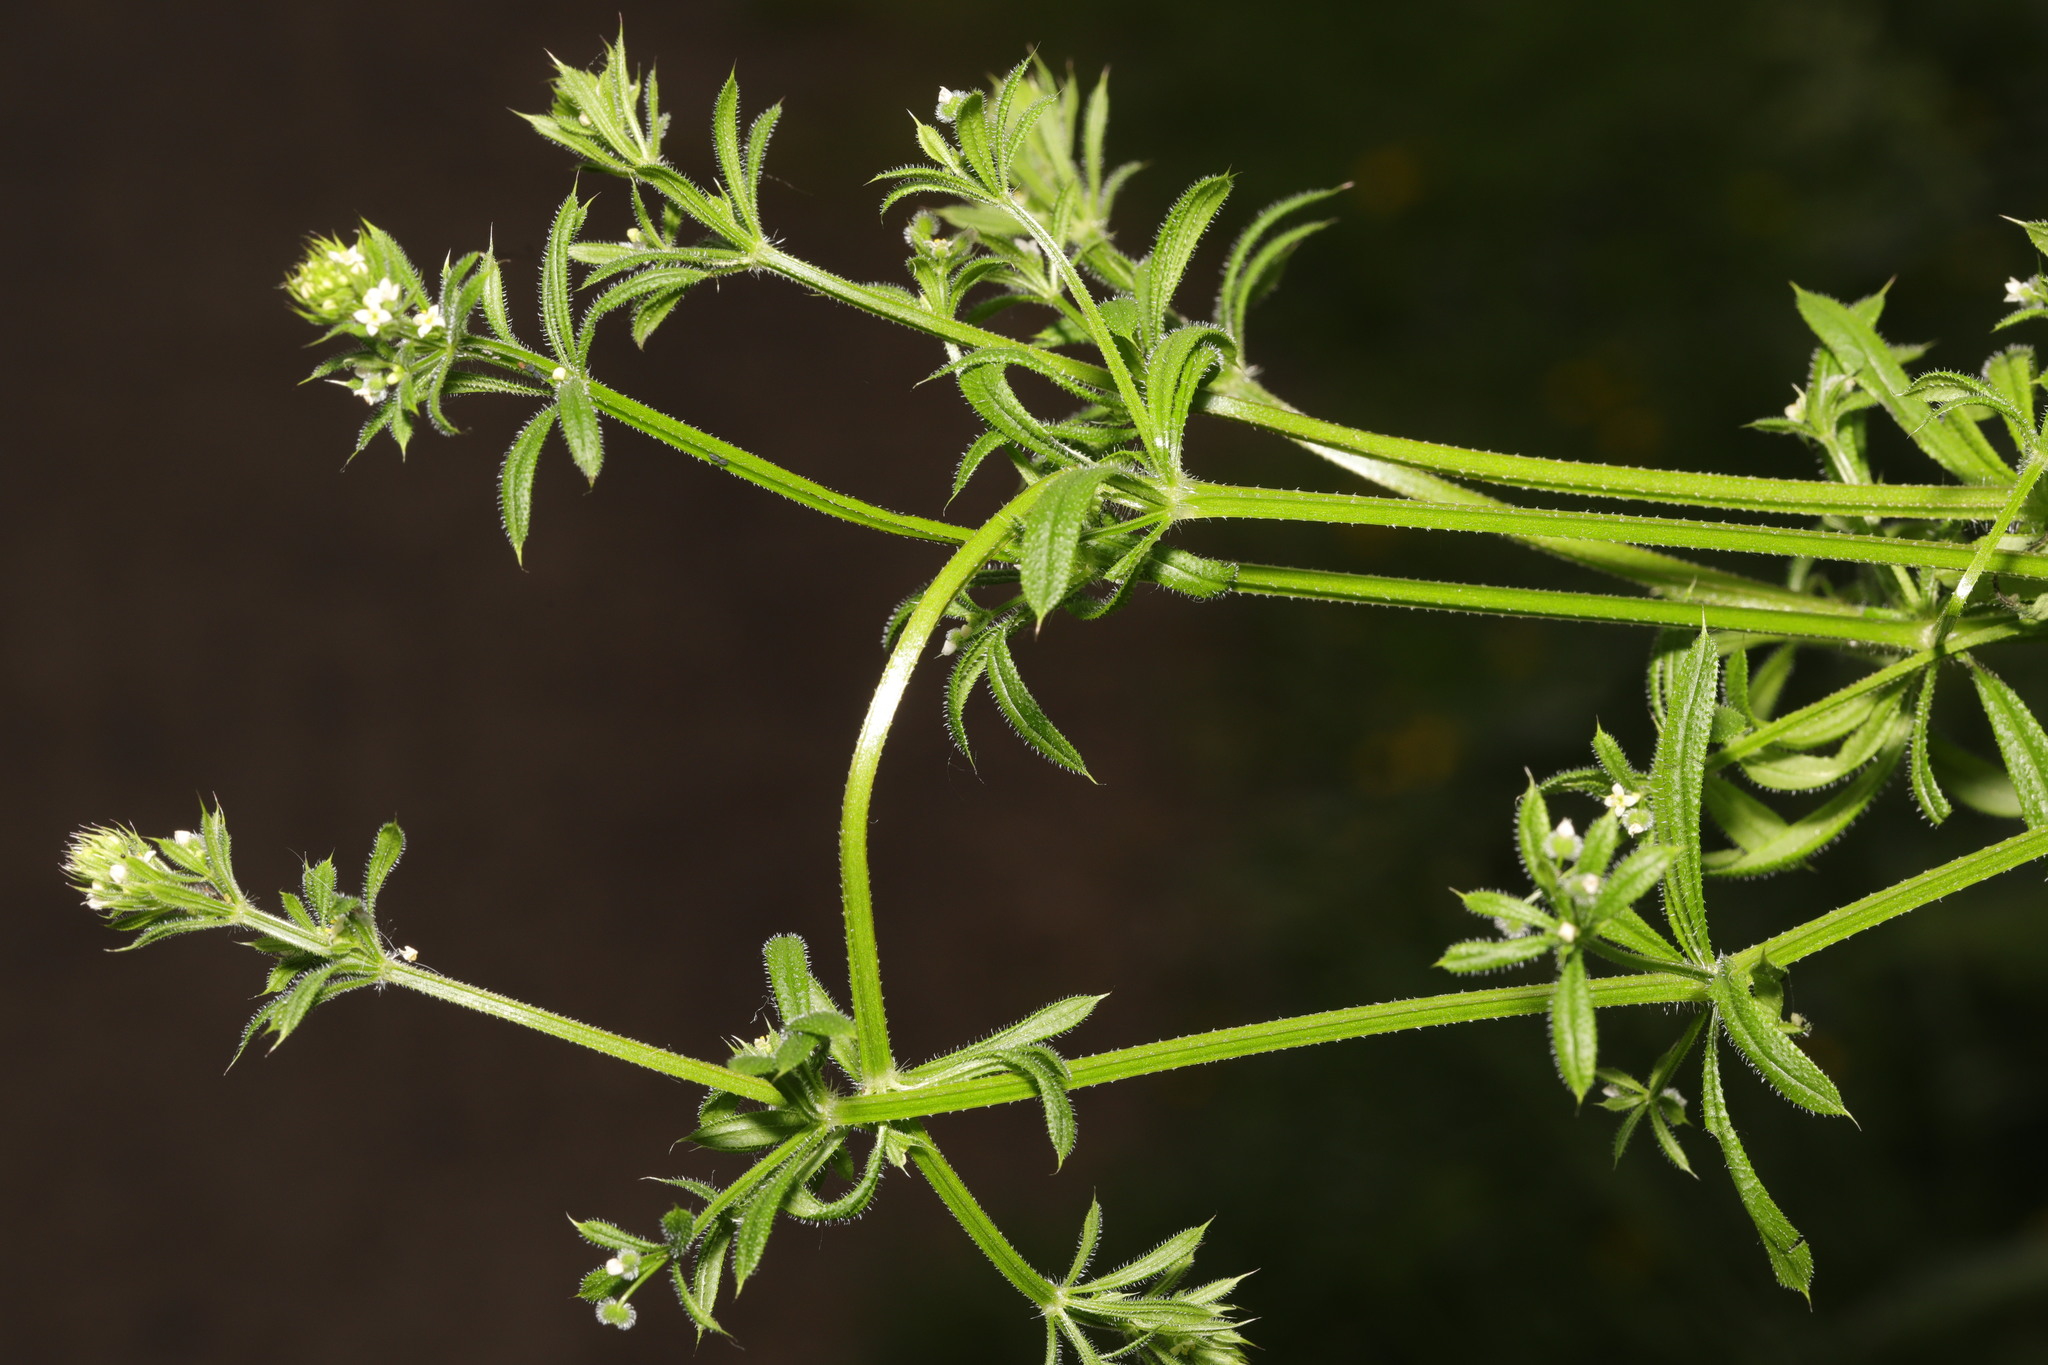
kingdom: Plantae
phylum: Tracheophyta
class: Magnoliopsida
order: Gentianales
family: Rubiaceae
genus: Galium
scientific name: Galium aparine
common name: Cleavers
